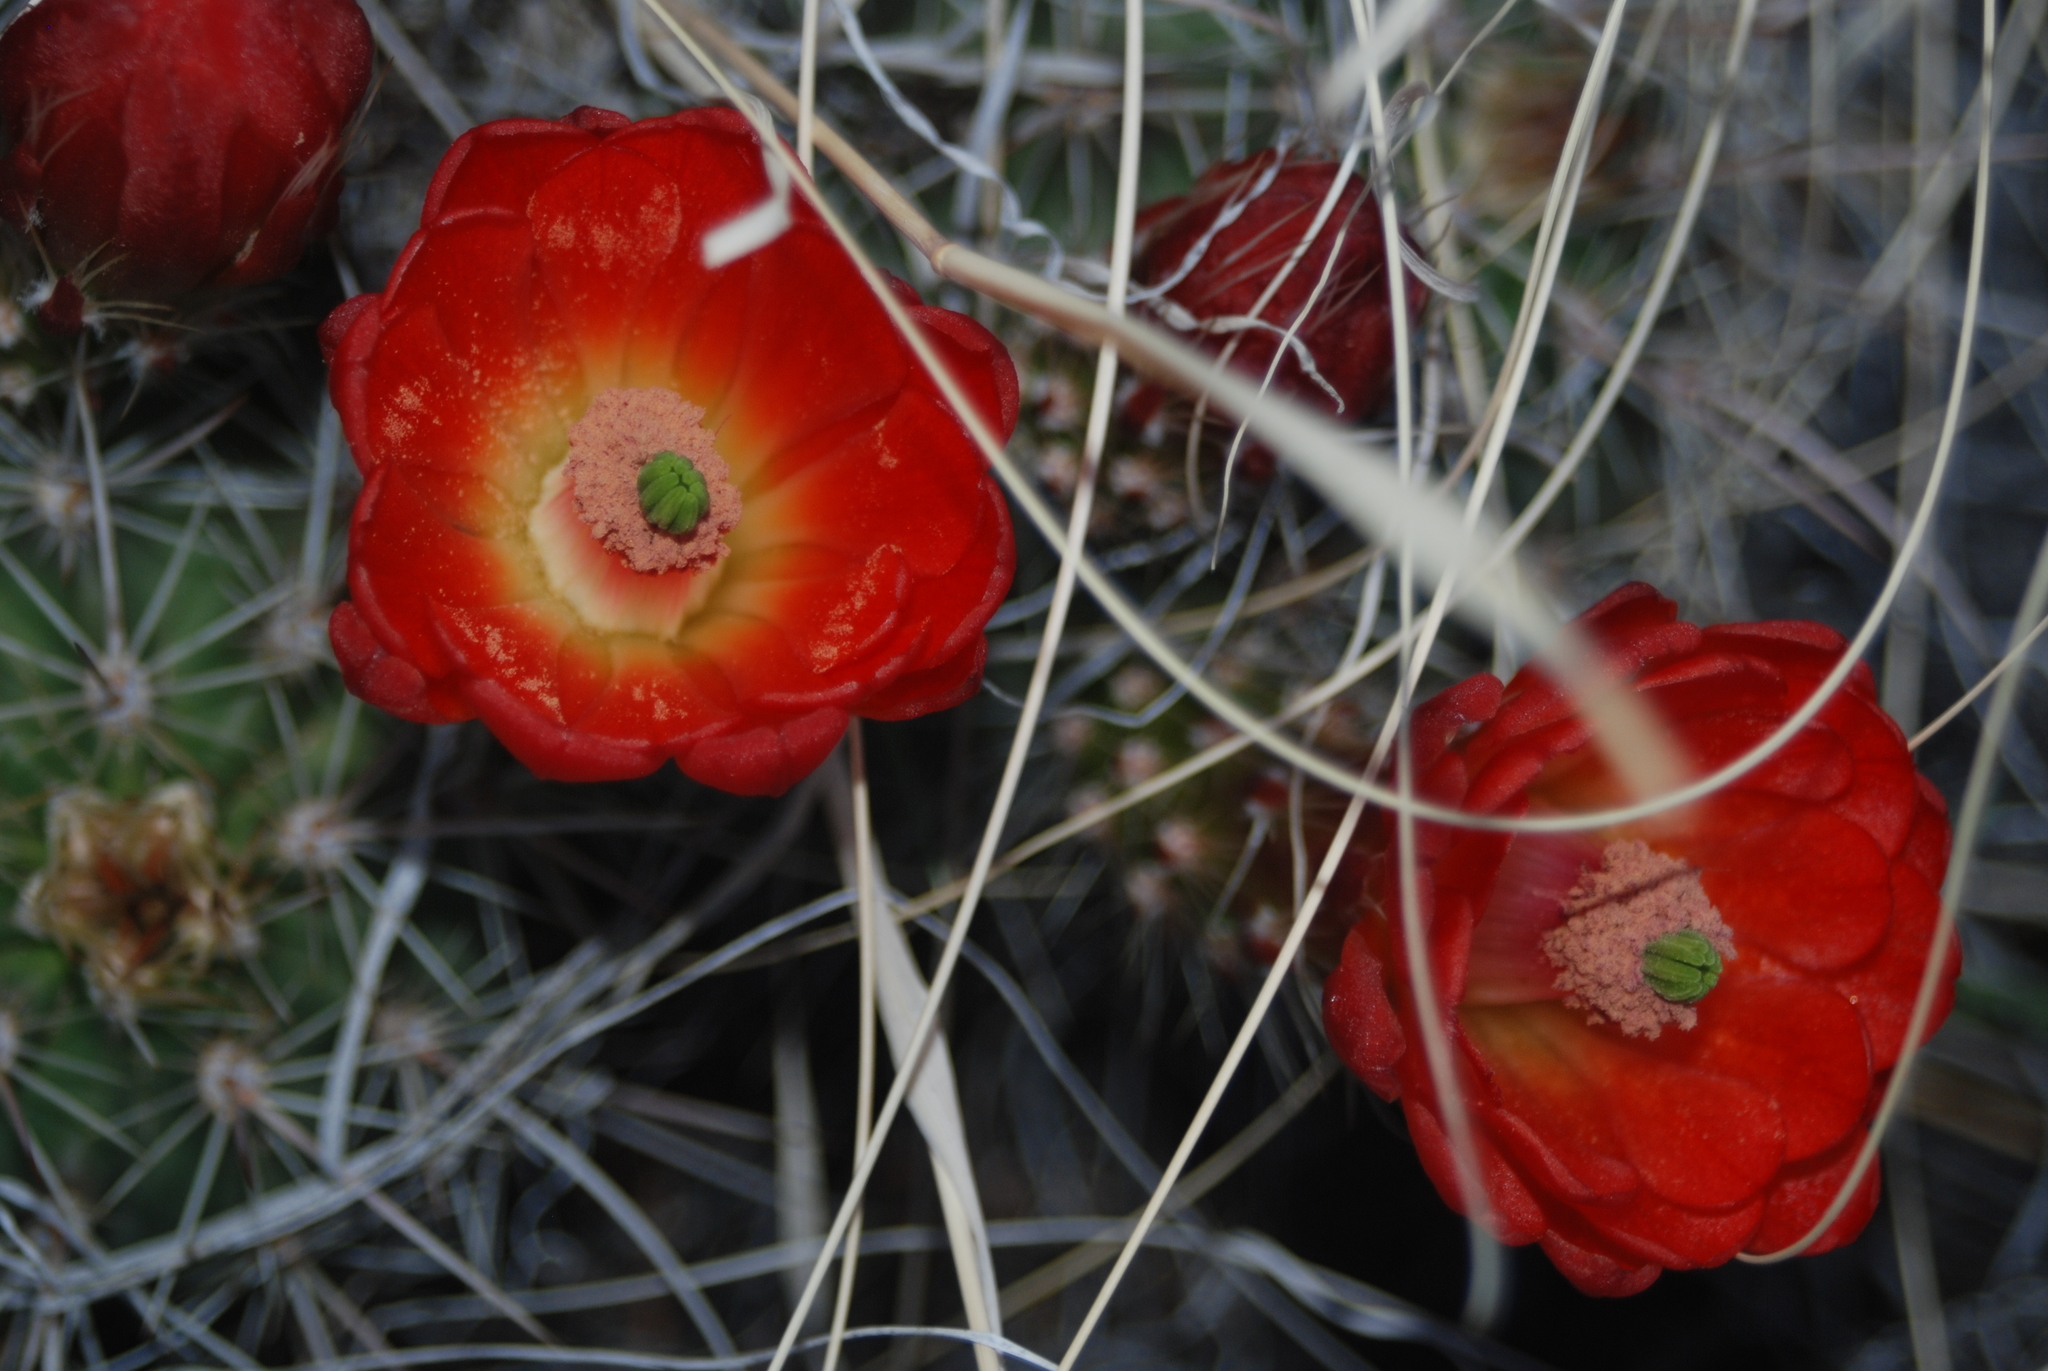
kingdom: Plantae
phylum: Tracheophyta
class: Magnoliopsida
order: Caryophyllales
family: Cactaceae
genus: Echinocereus
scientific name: Echinocereus coccineus
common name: Scarlet hedgehog cactus
